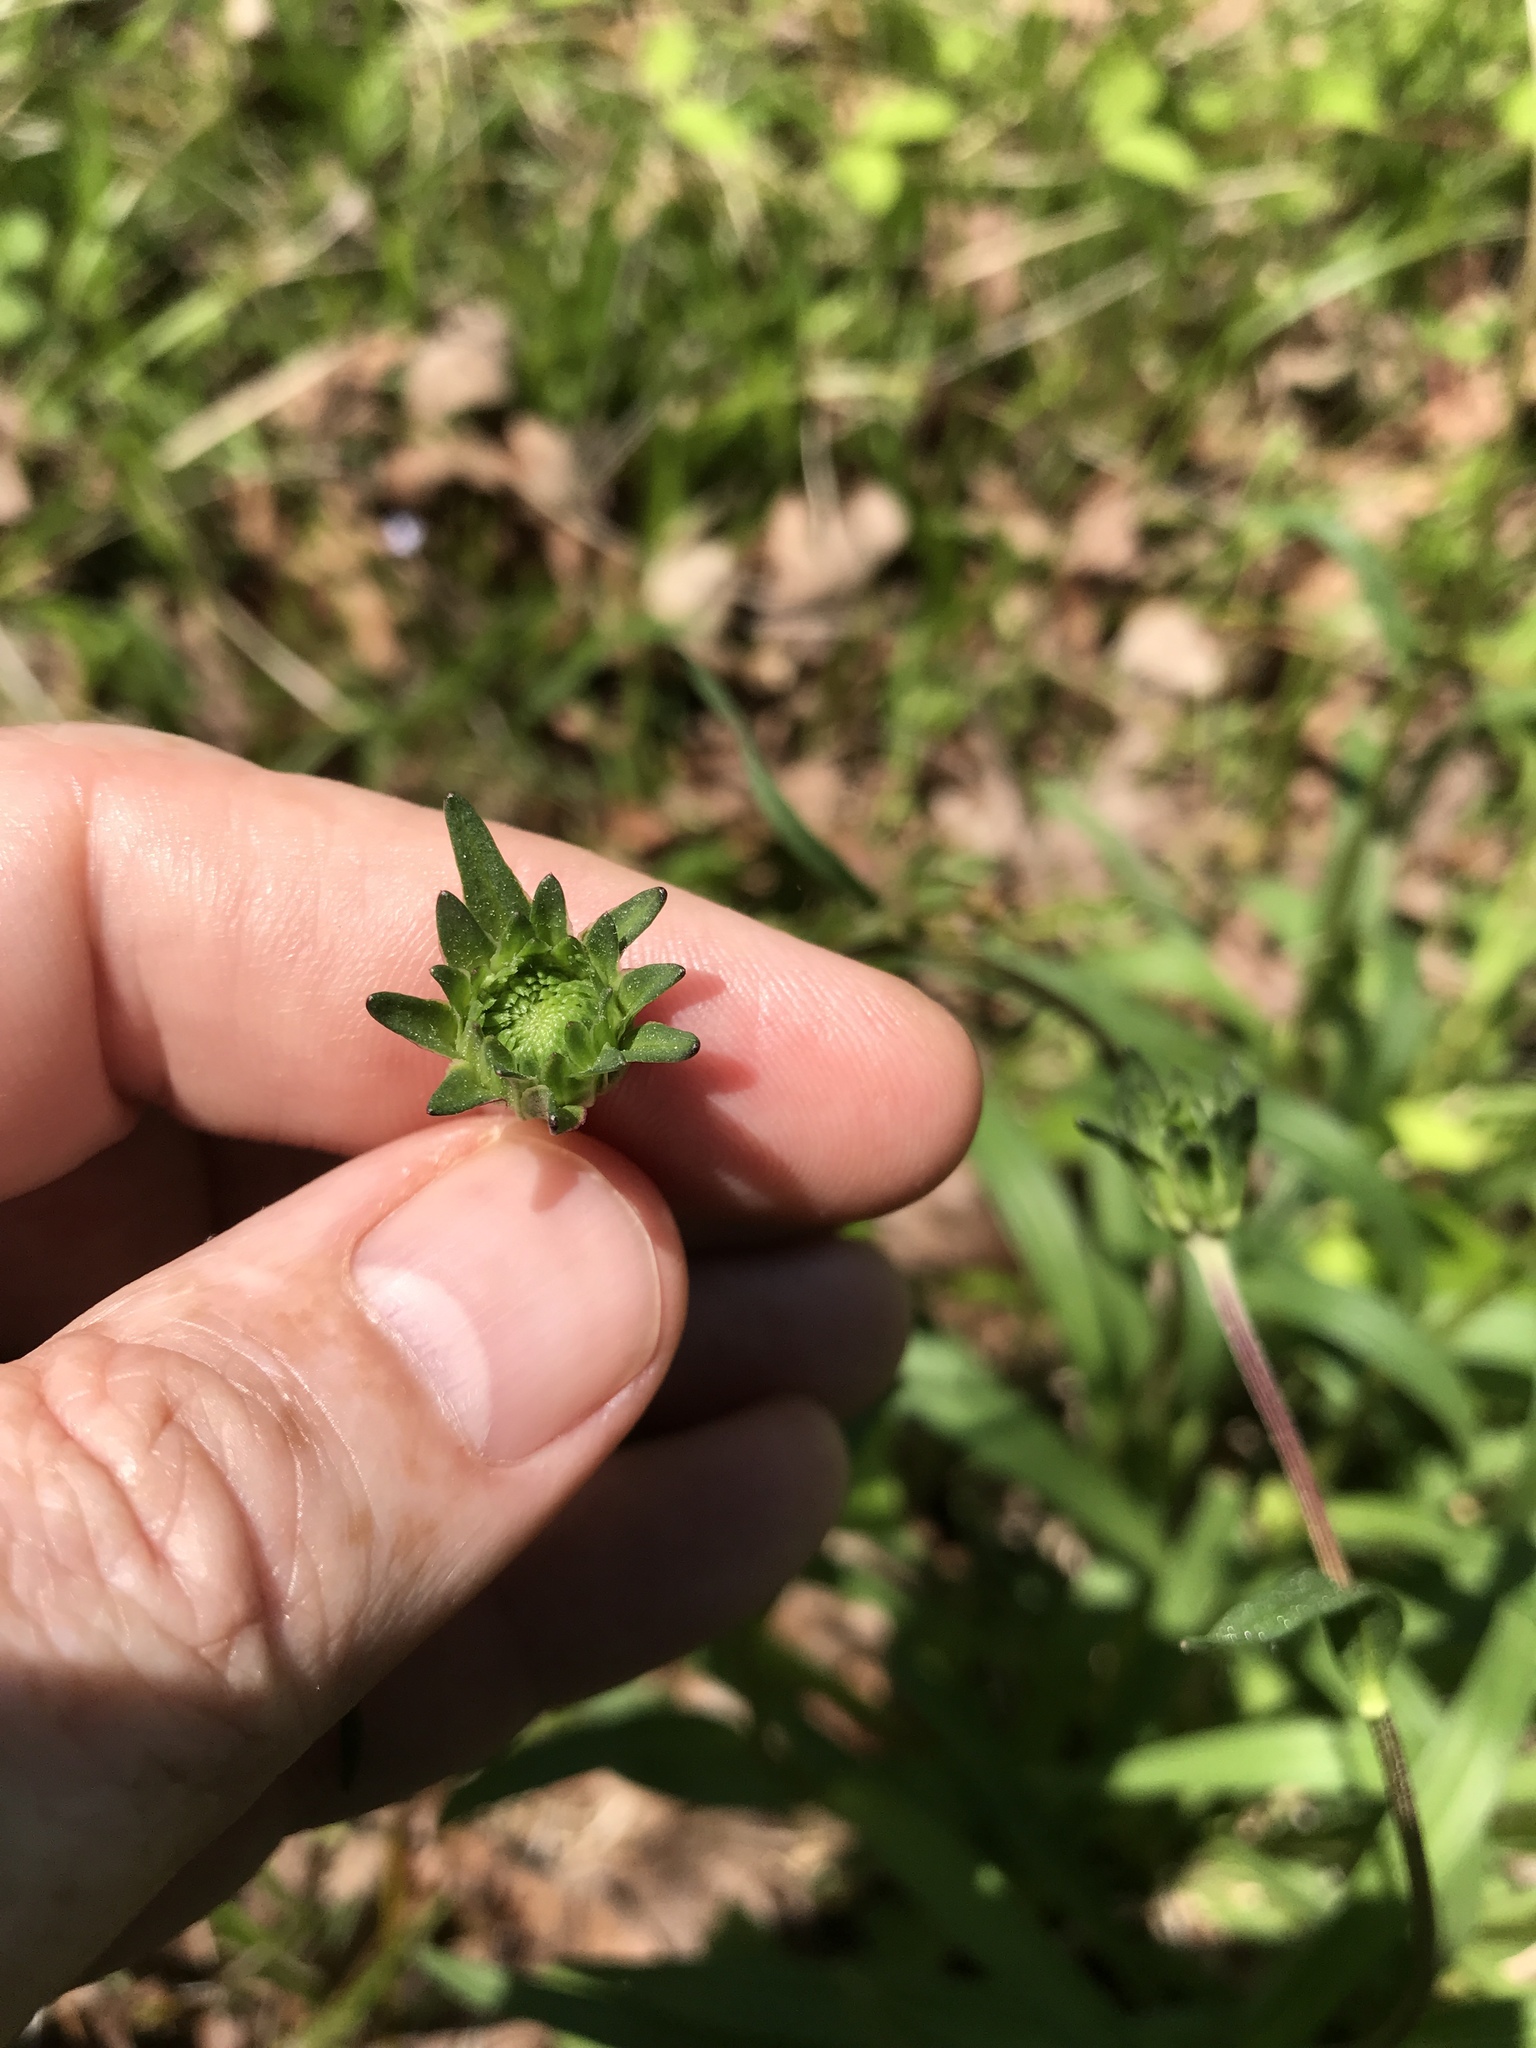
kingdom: Plantae
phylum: Tracheophyta
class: Magnoliopsida
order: Asterales
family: Asteraceae
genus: Marshallia
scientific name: Marshallia legrandii
